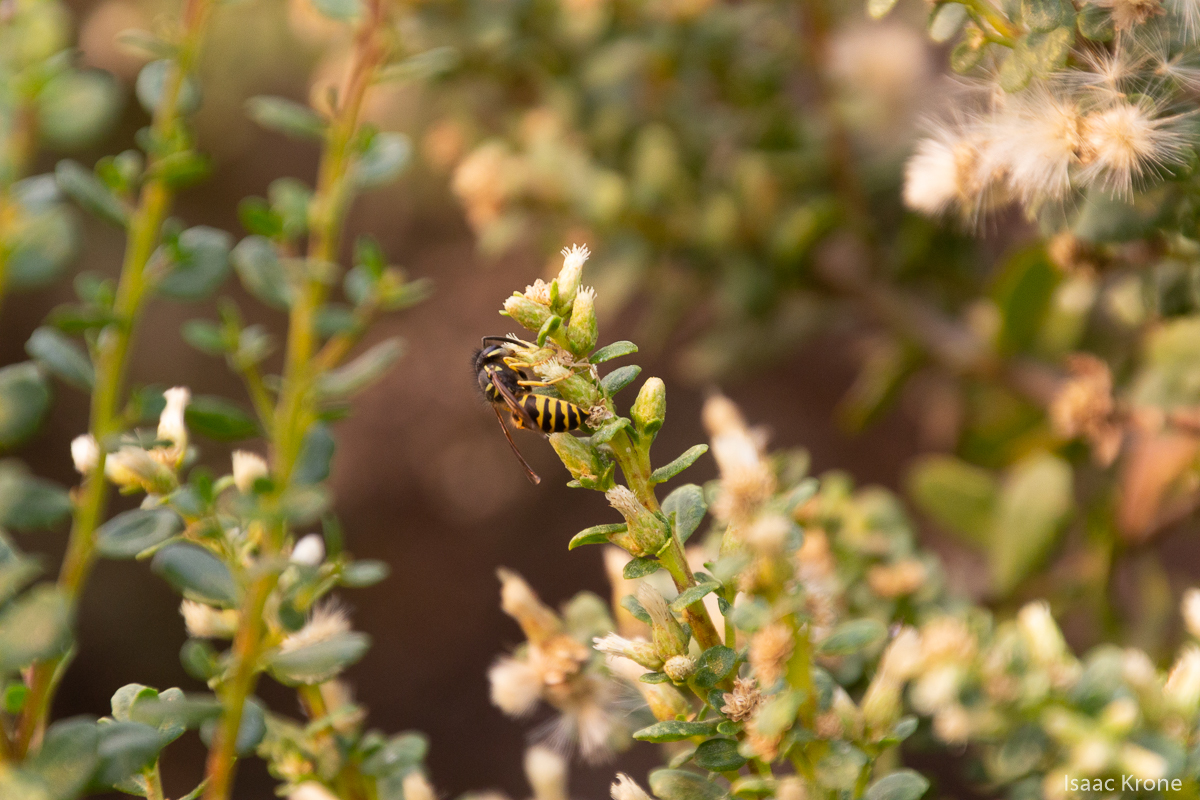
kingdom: Animalia
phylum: Arthropoda
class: Insecta
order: Hymenoptera
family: Vespidae
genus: Vespula
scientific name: Vespula alascensis
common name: Alaska yellowjacket
